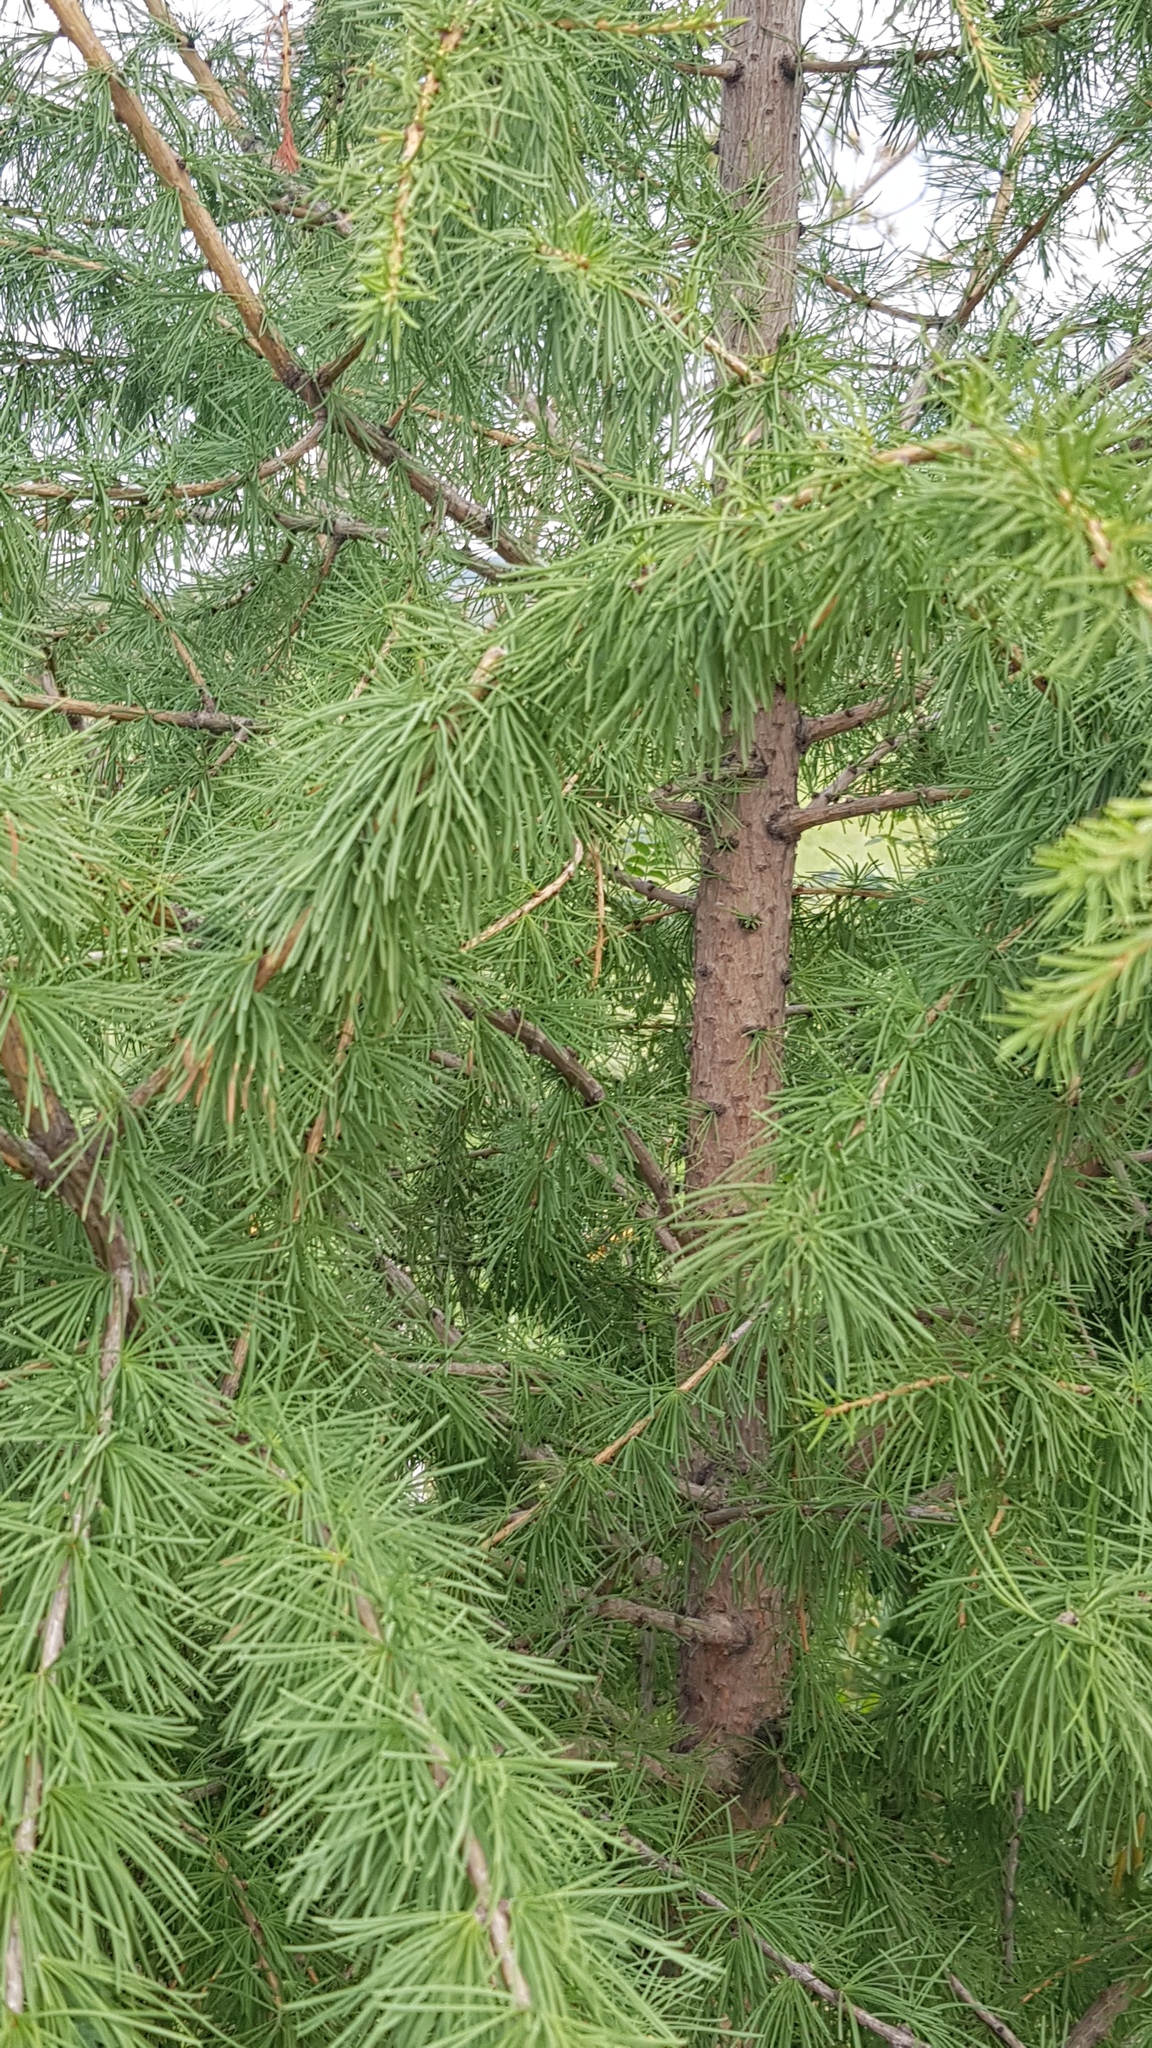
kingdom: Plantae
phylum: Tracheophyta
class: Pinopsida
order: Pinales
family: Pinaceae
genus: Larix
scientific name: Larix sibirica
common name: Siberian larch
